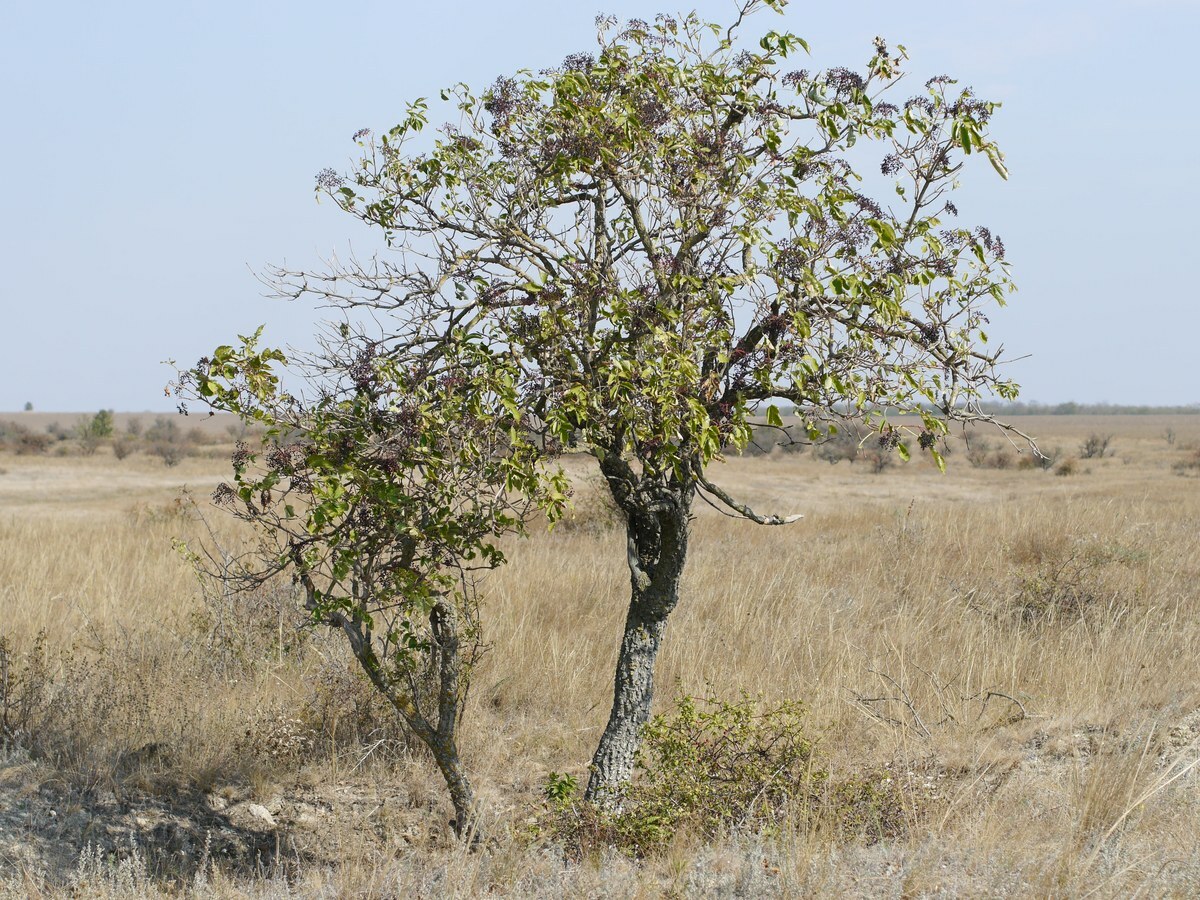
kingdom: Plantae
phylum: Tracheophyta
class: Magnoliopsida
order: Dipsacales
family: Viburnaceae
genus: Sambucus
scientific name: Sambucus nigra
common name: Elder
